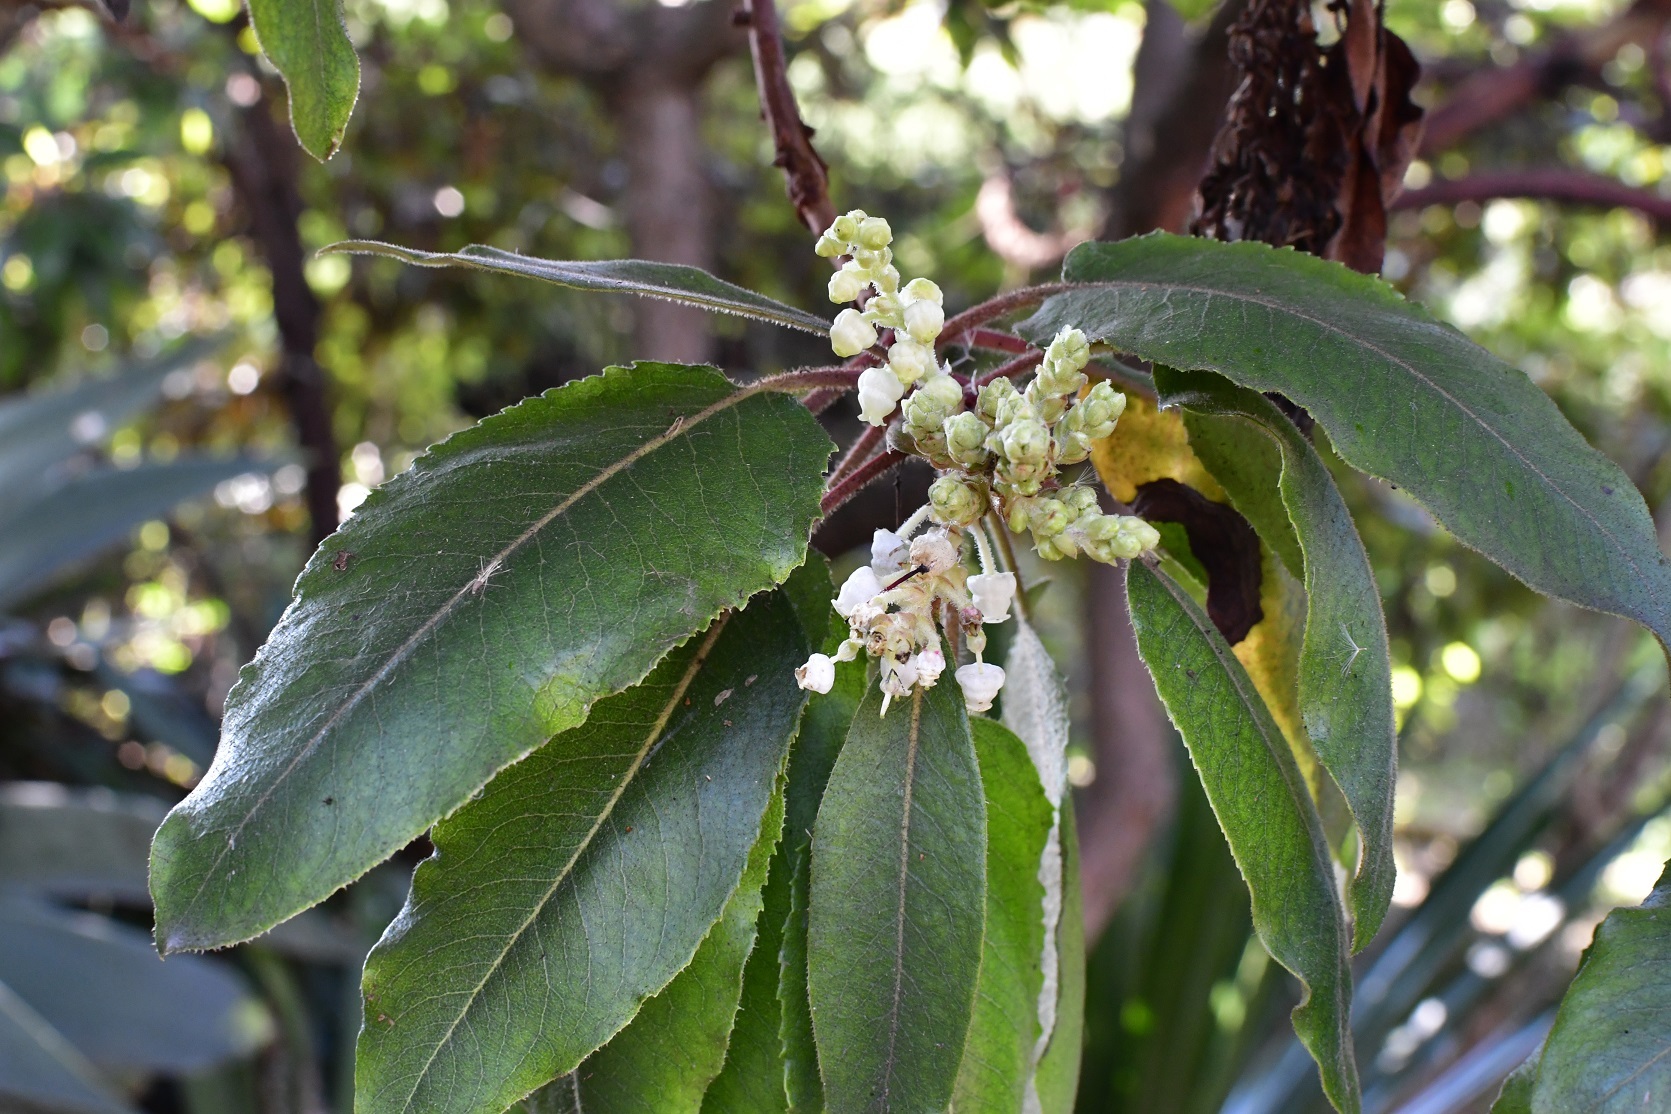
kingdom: Plantae
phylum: Tracheophyta
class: Magnoliopsida
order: Ericales
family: Ericaceae
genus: Arbutus
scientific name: Arbutus xalapensis
